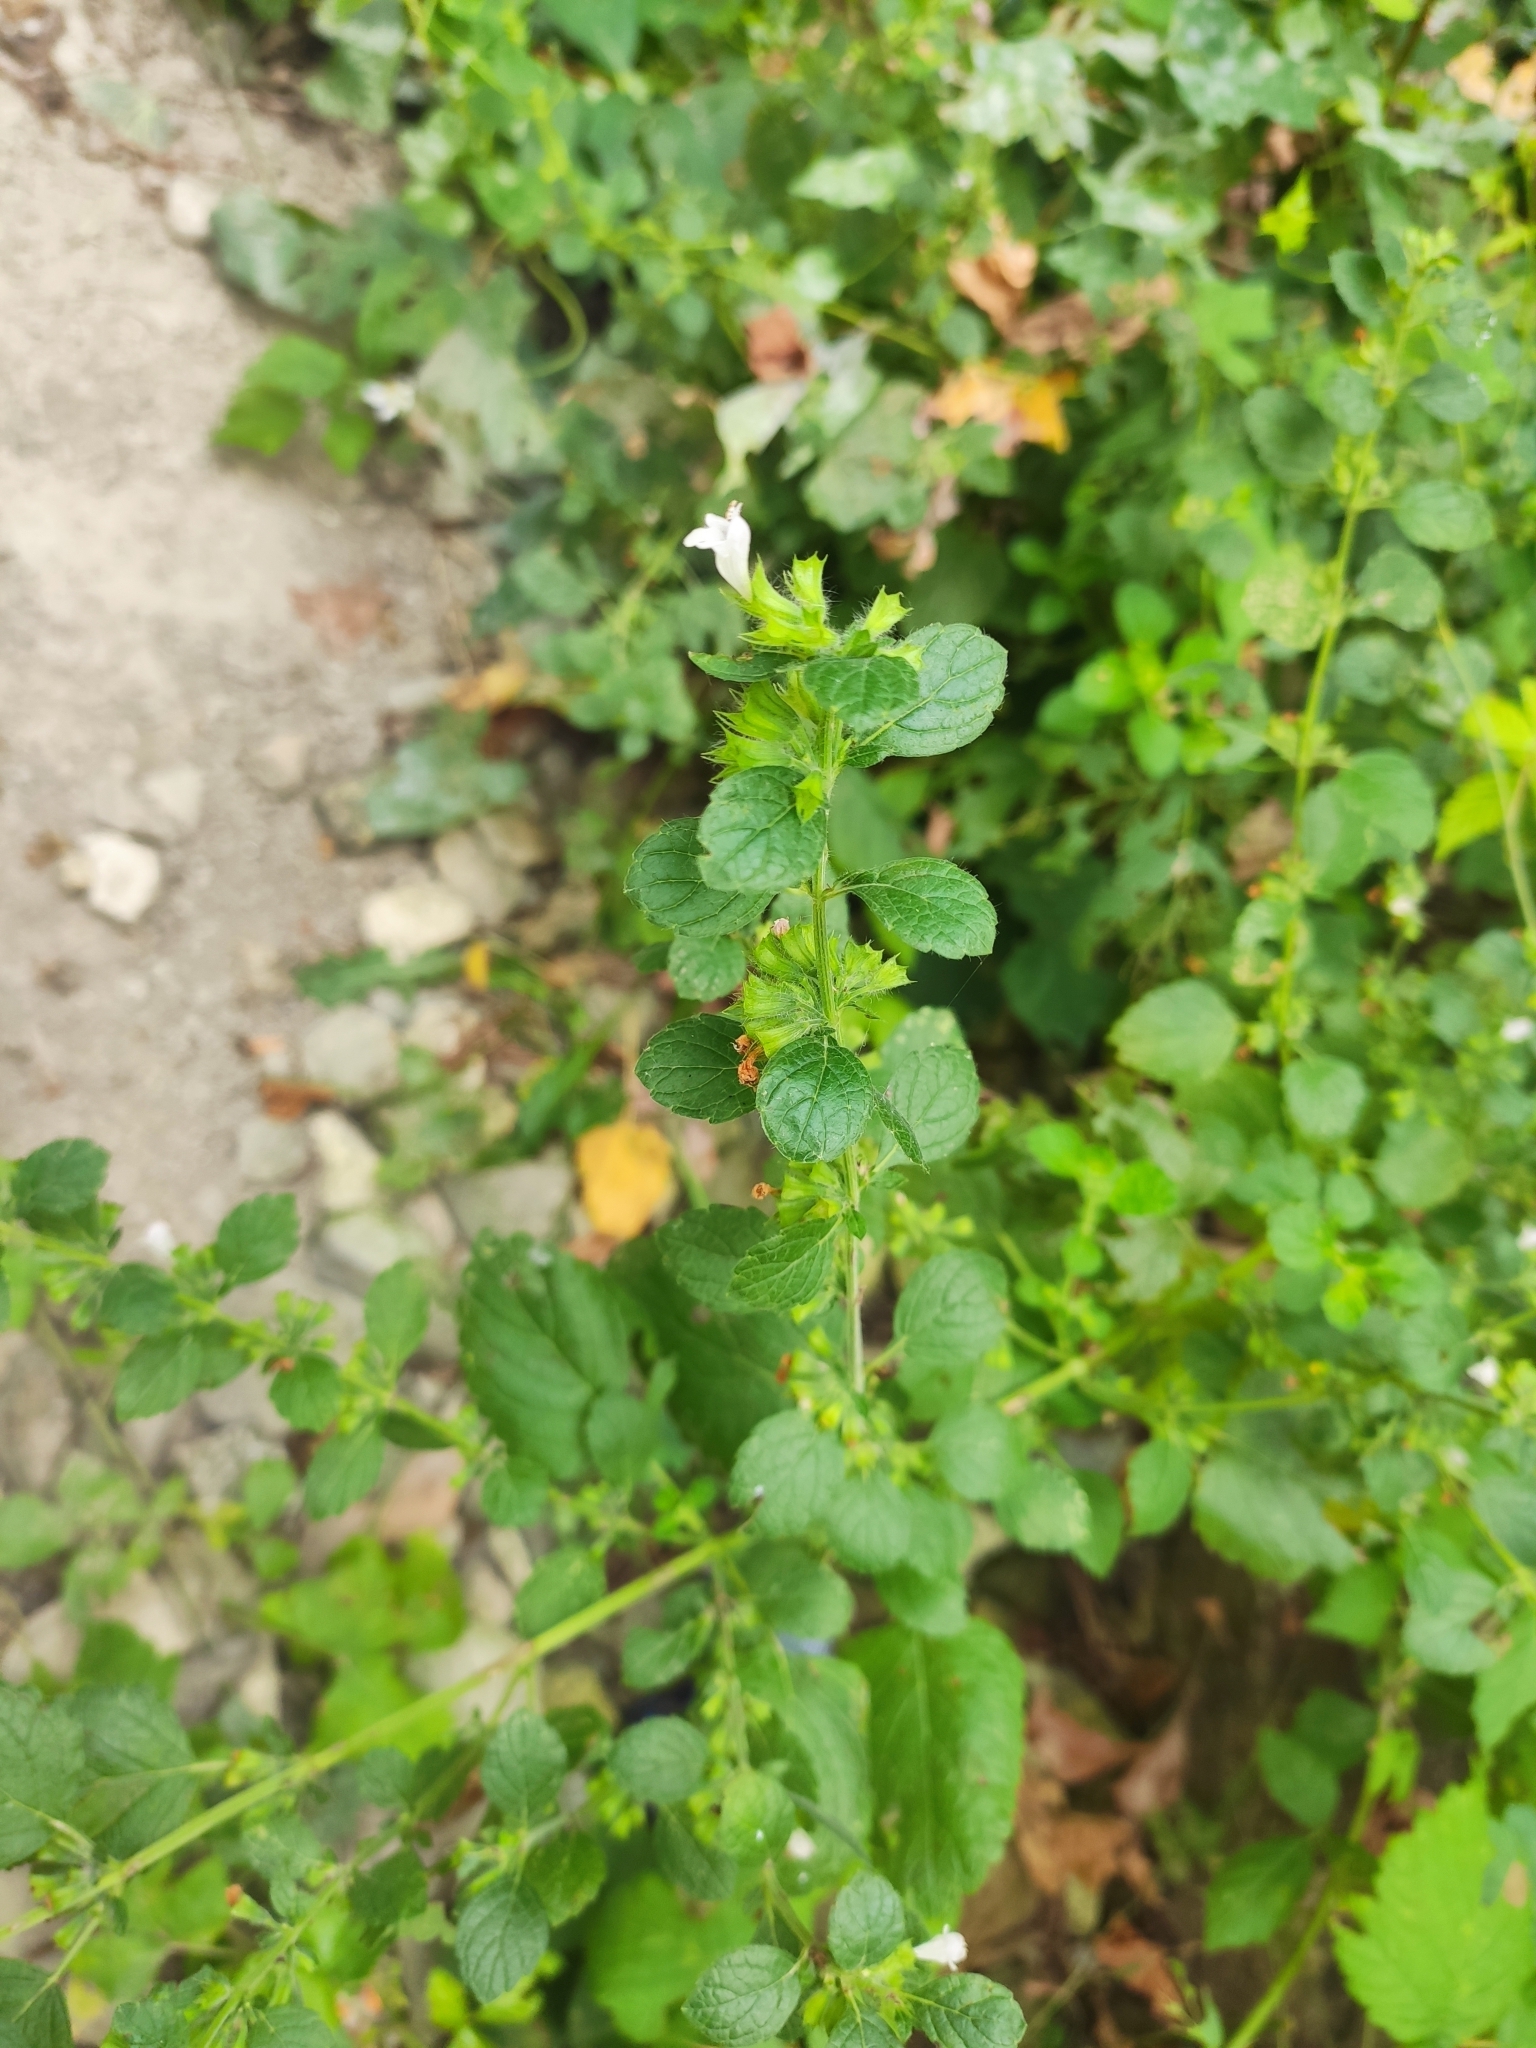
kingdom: Plantae
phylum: Tracheophyta
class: Magnoliopsida
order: Lamiales
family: Lamiaceae
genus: Melissa
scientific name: Melissa officinalis
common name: Balm
